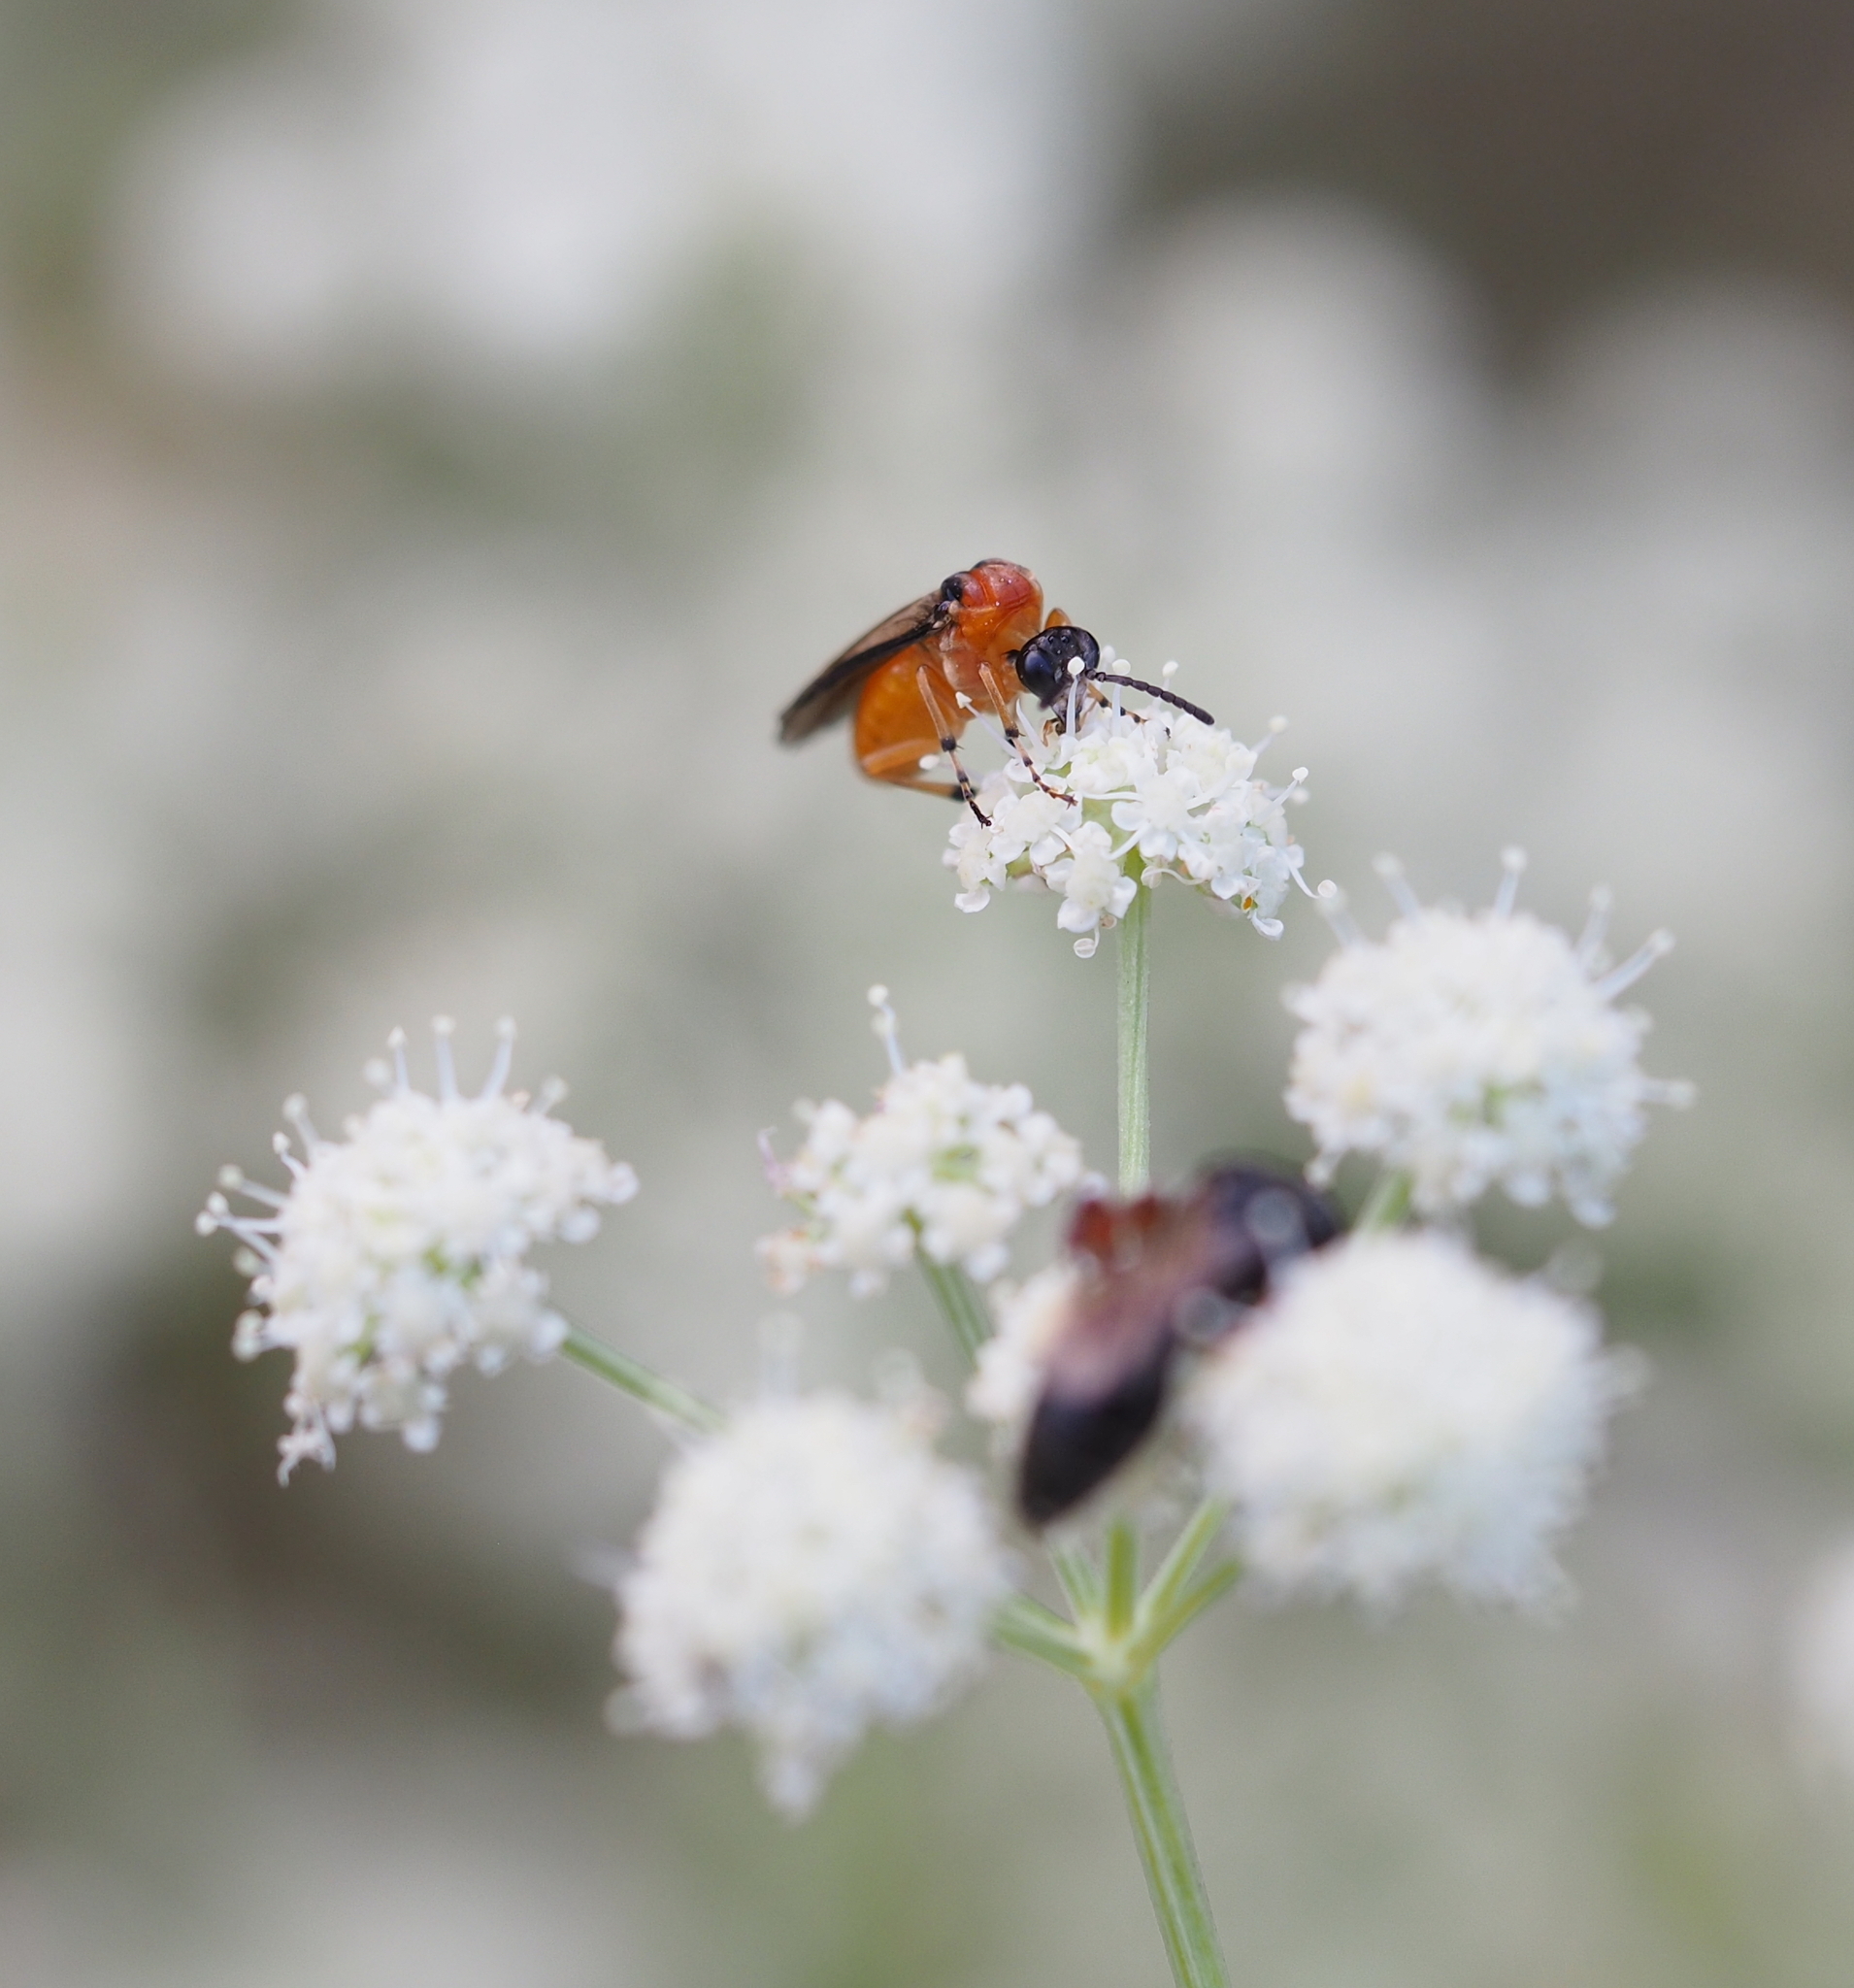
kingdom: Animalia
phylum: Arthropoda
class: Insecta
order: Hymenoptera
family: Tenthredinidae
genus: Athalia
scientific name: Athalia rosae
